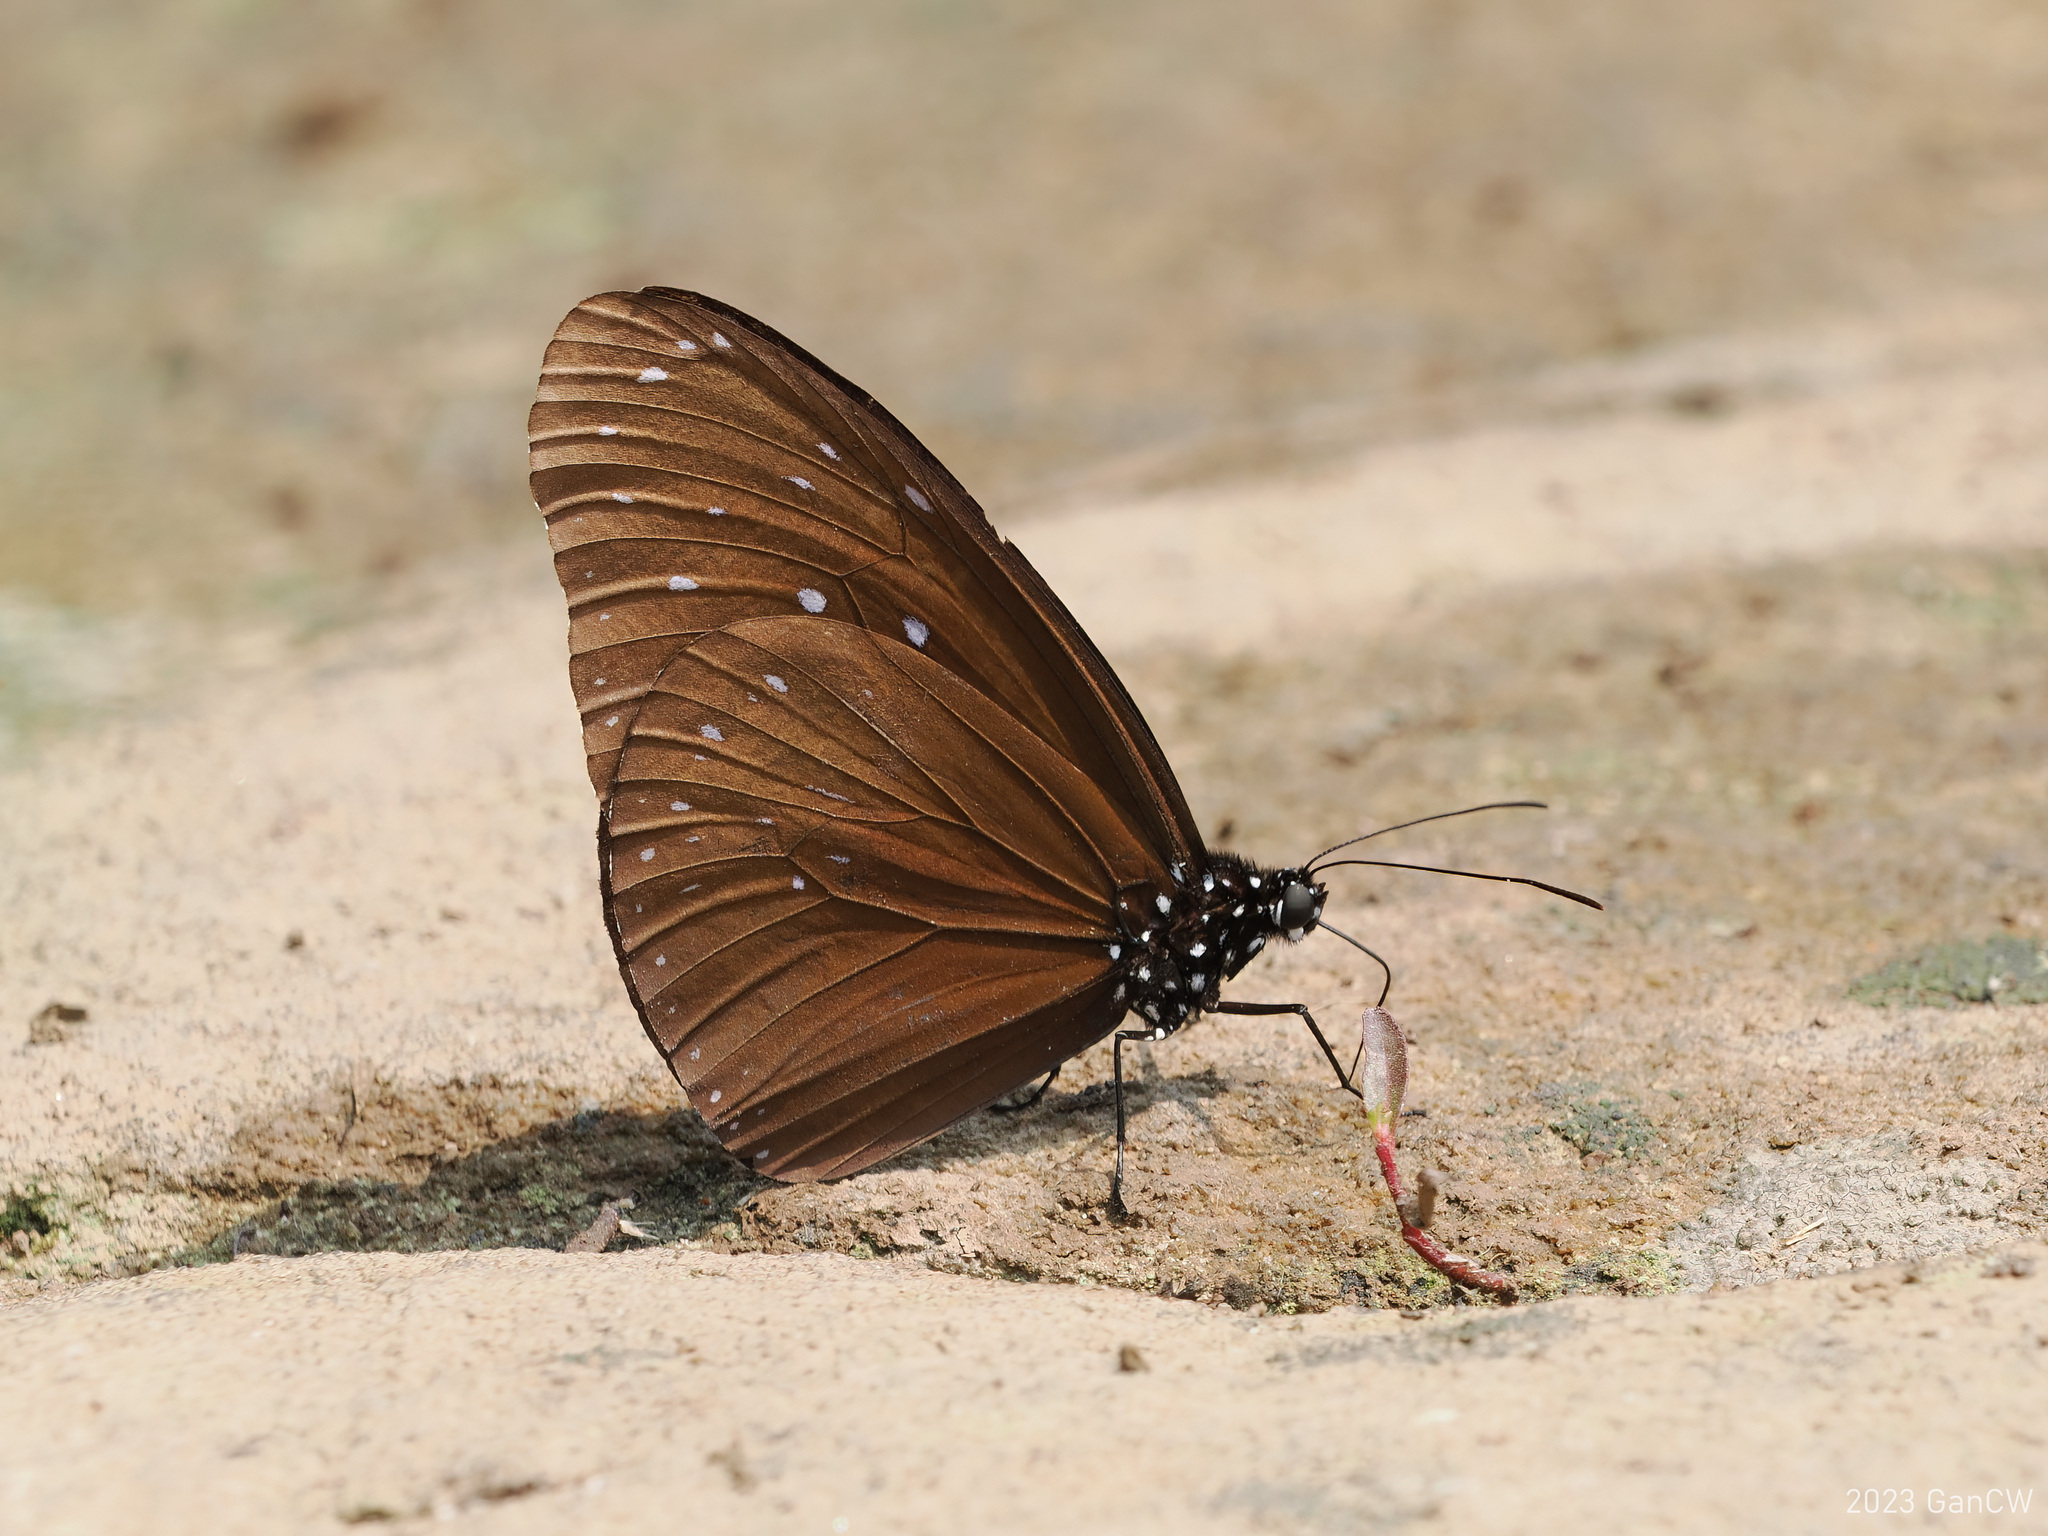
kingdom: Animalia
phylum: Arthropoda
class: Insecta
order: Lepidoptera
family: Nymphalidae
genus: Euploea
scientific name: Euploea mulciber
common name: Striped blue crow butterfly
